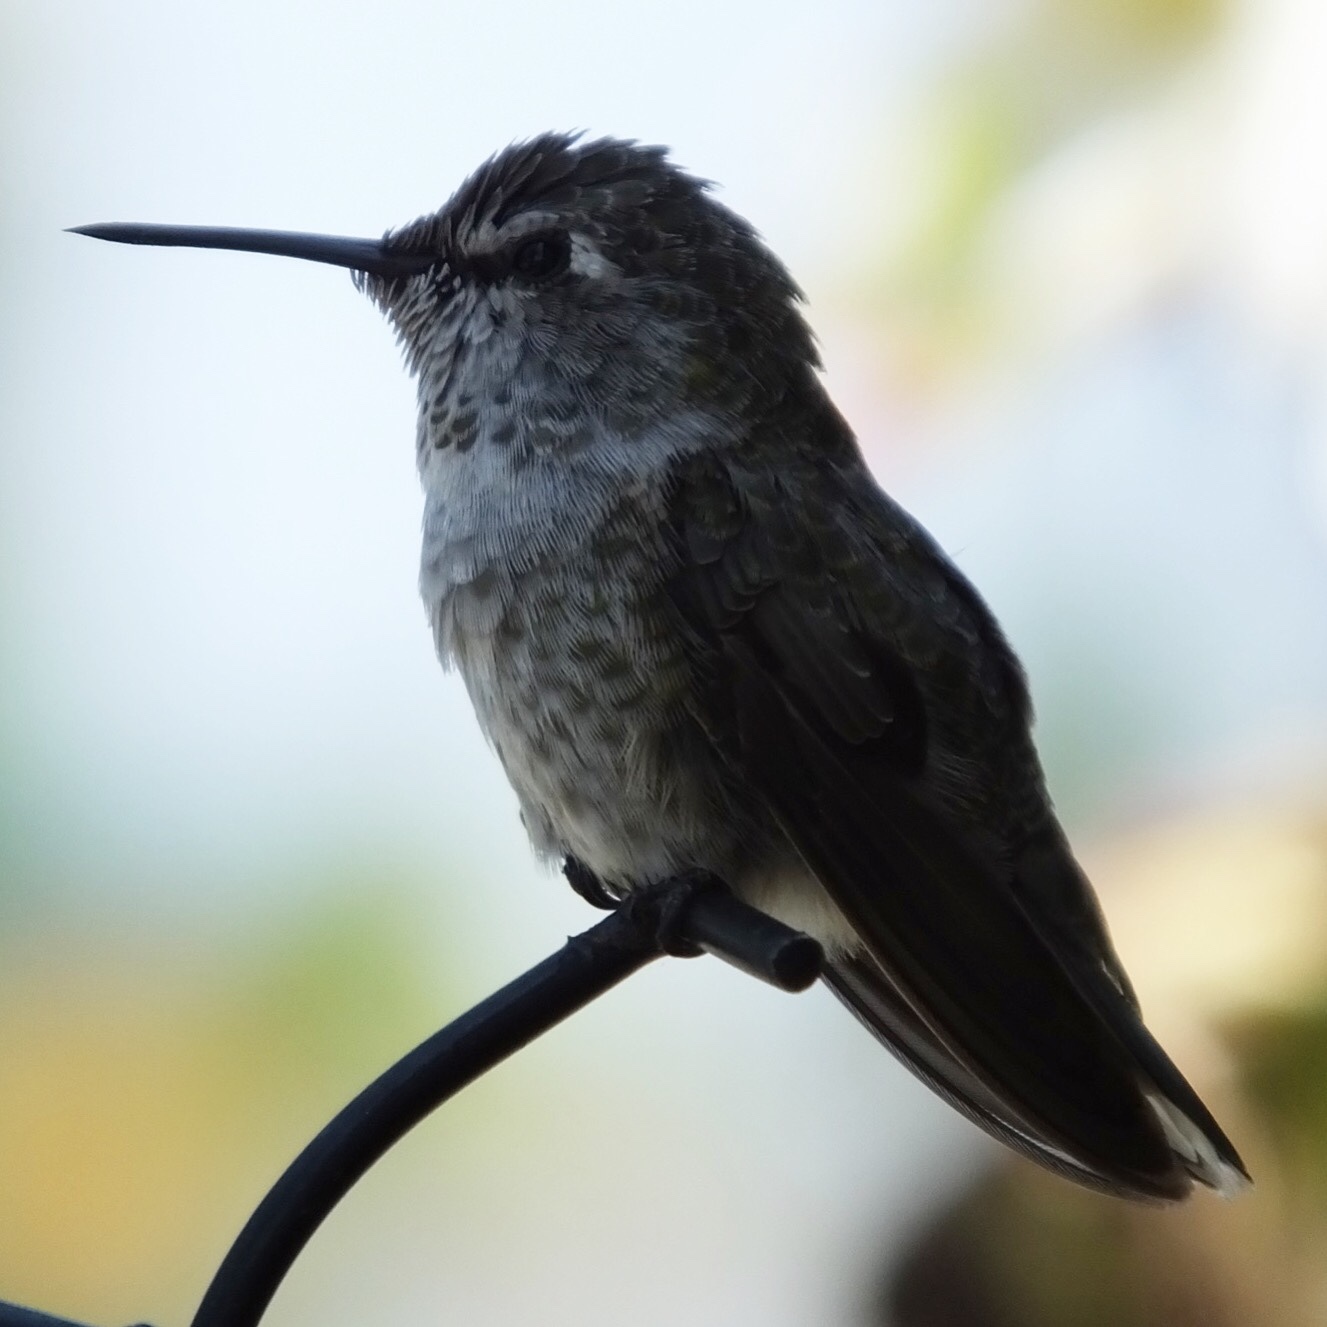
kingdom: Animalia
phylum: Chordata
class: Aves
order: Apodiformes
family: Trochilidae
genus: Calypte
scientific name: Calypte anna
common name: Anna's hummingbird
